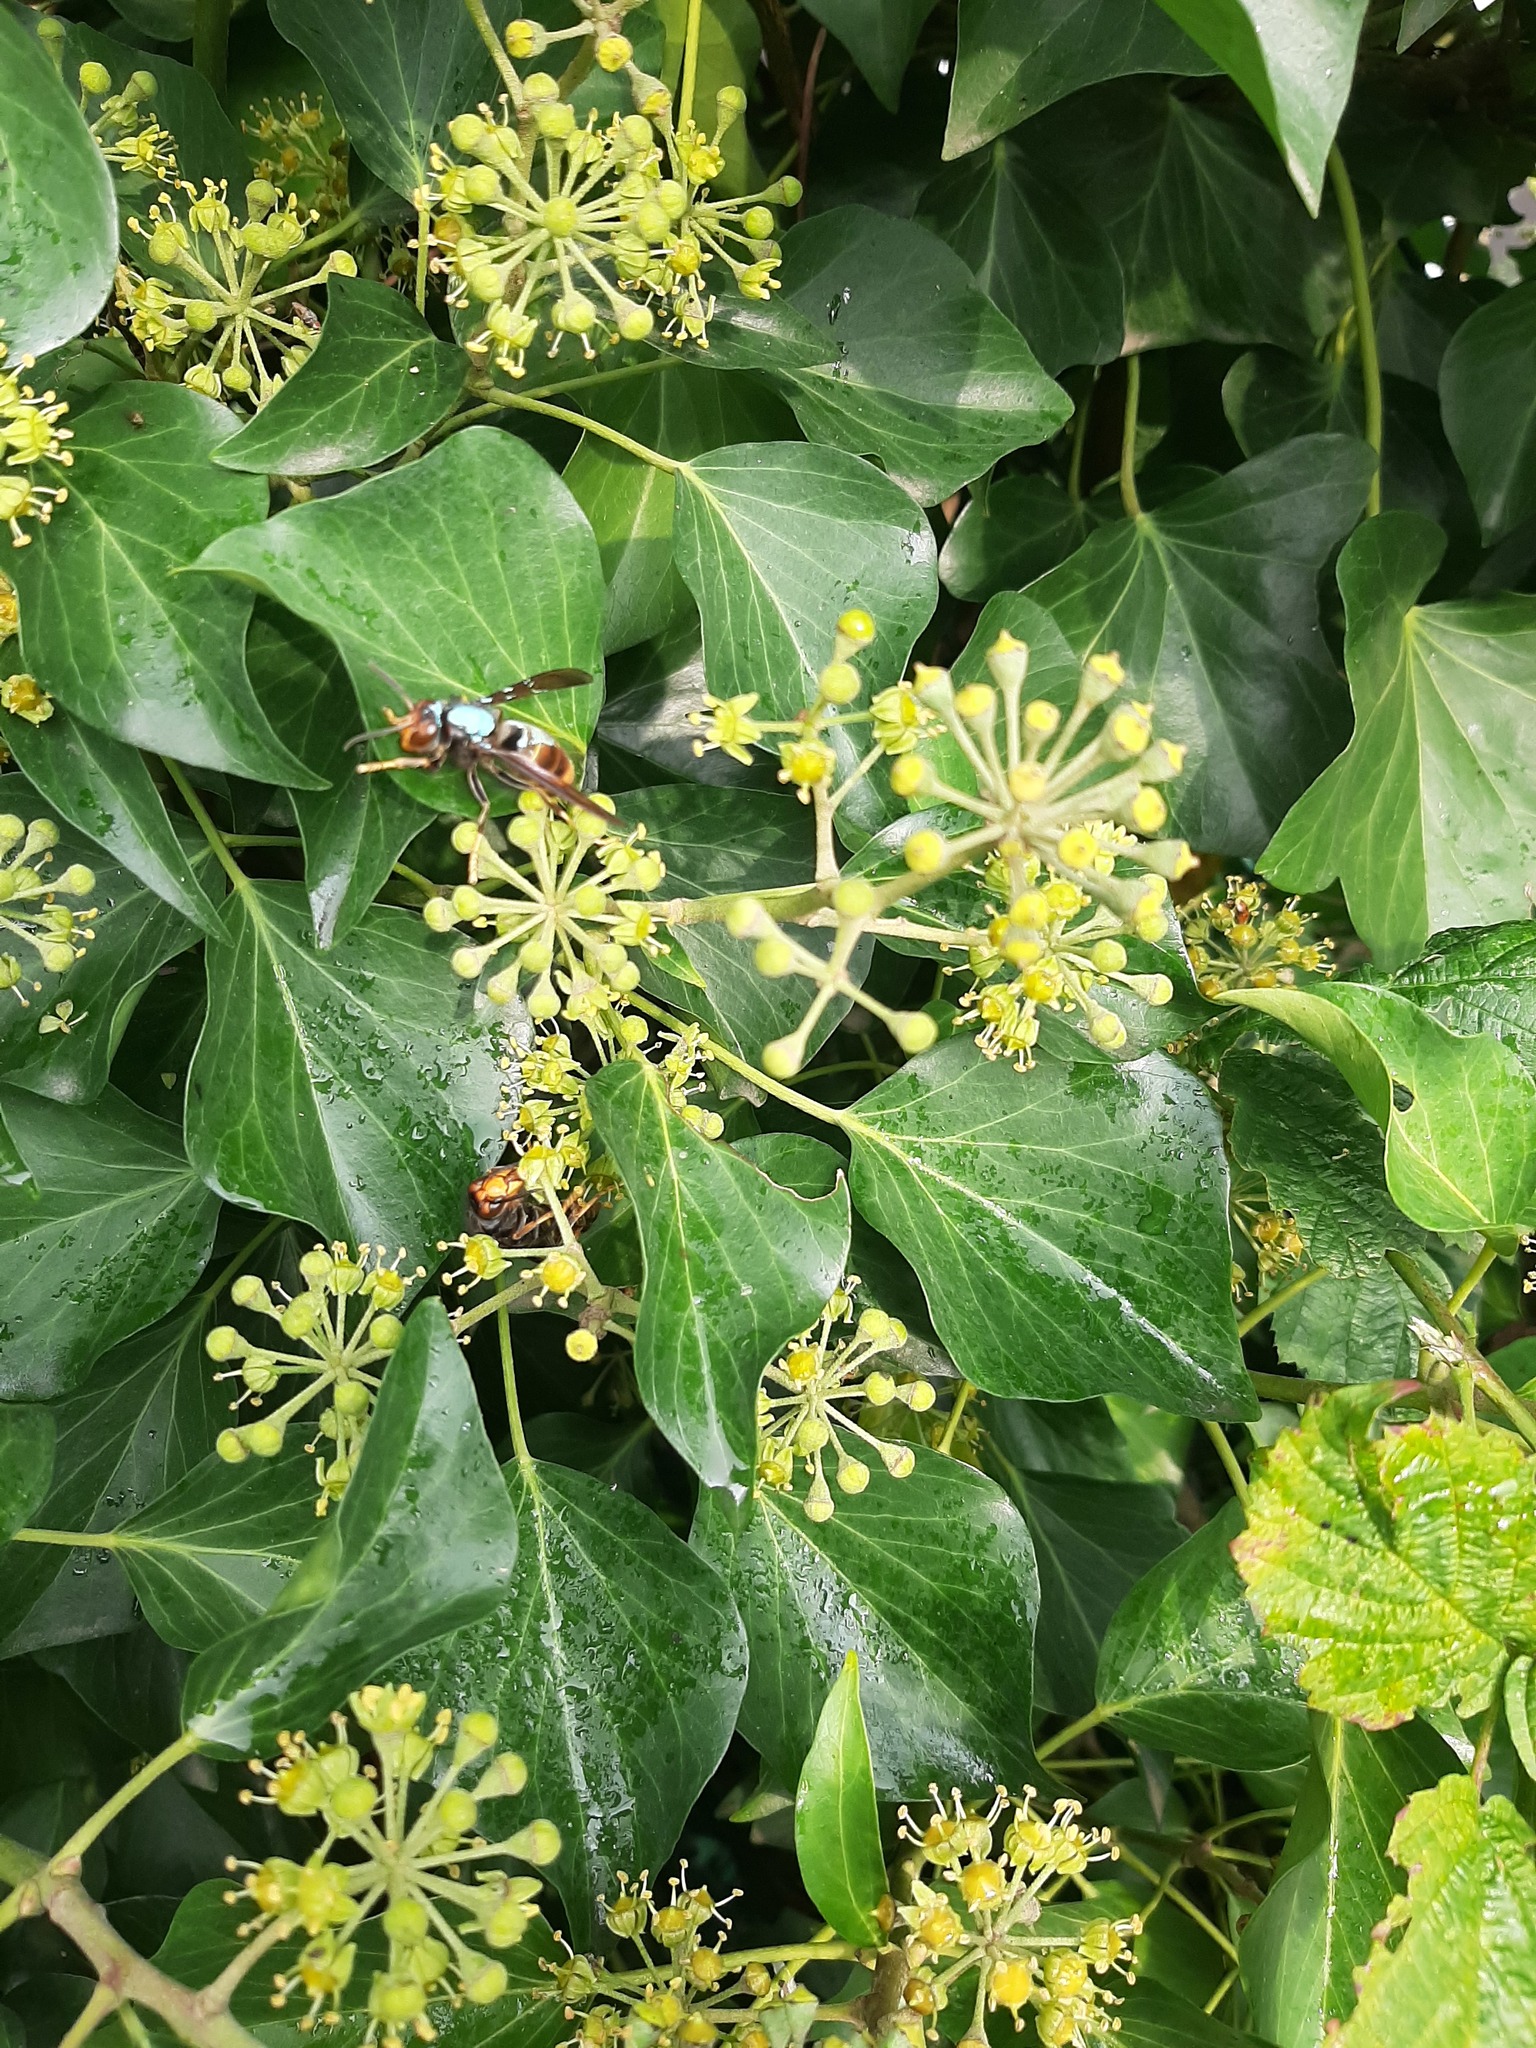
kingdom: Animalia
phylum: Arthropoda
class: Insecta
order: Hymenoptera
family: Vespidae
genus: Vespa
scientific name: Vespa velutina
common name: Asian hornet
